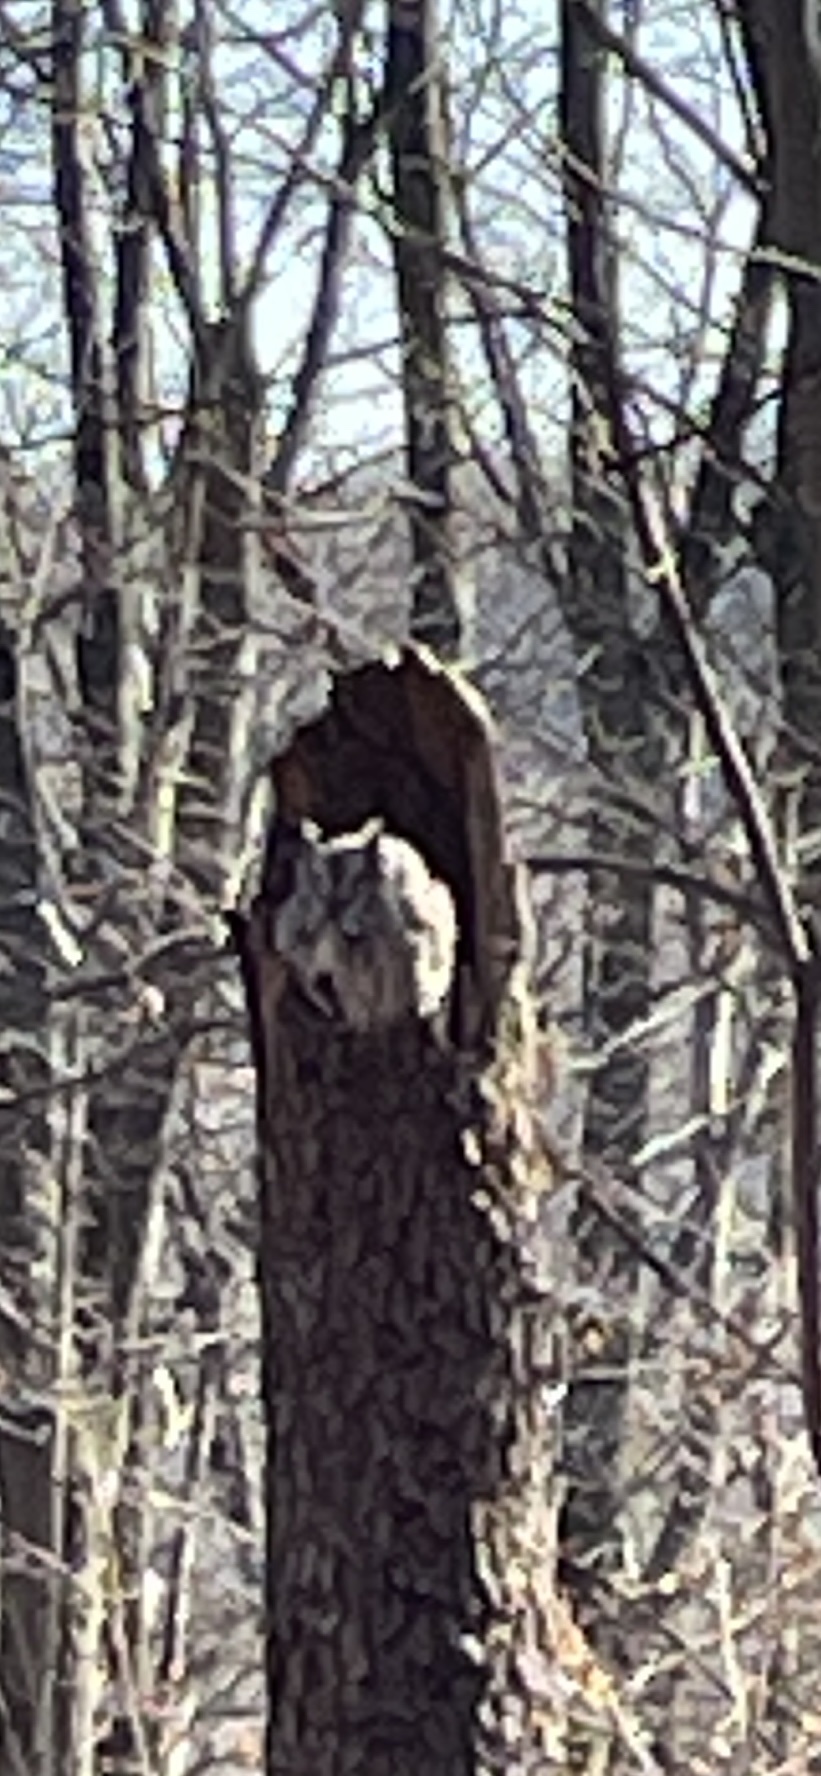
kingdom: Animalia
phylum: Chordata
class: Aves
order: Strigiformes
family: Strigidae
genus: Megascops
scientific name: Megascops asio
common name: Eastern screech-owl
